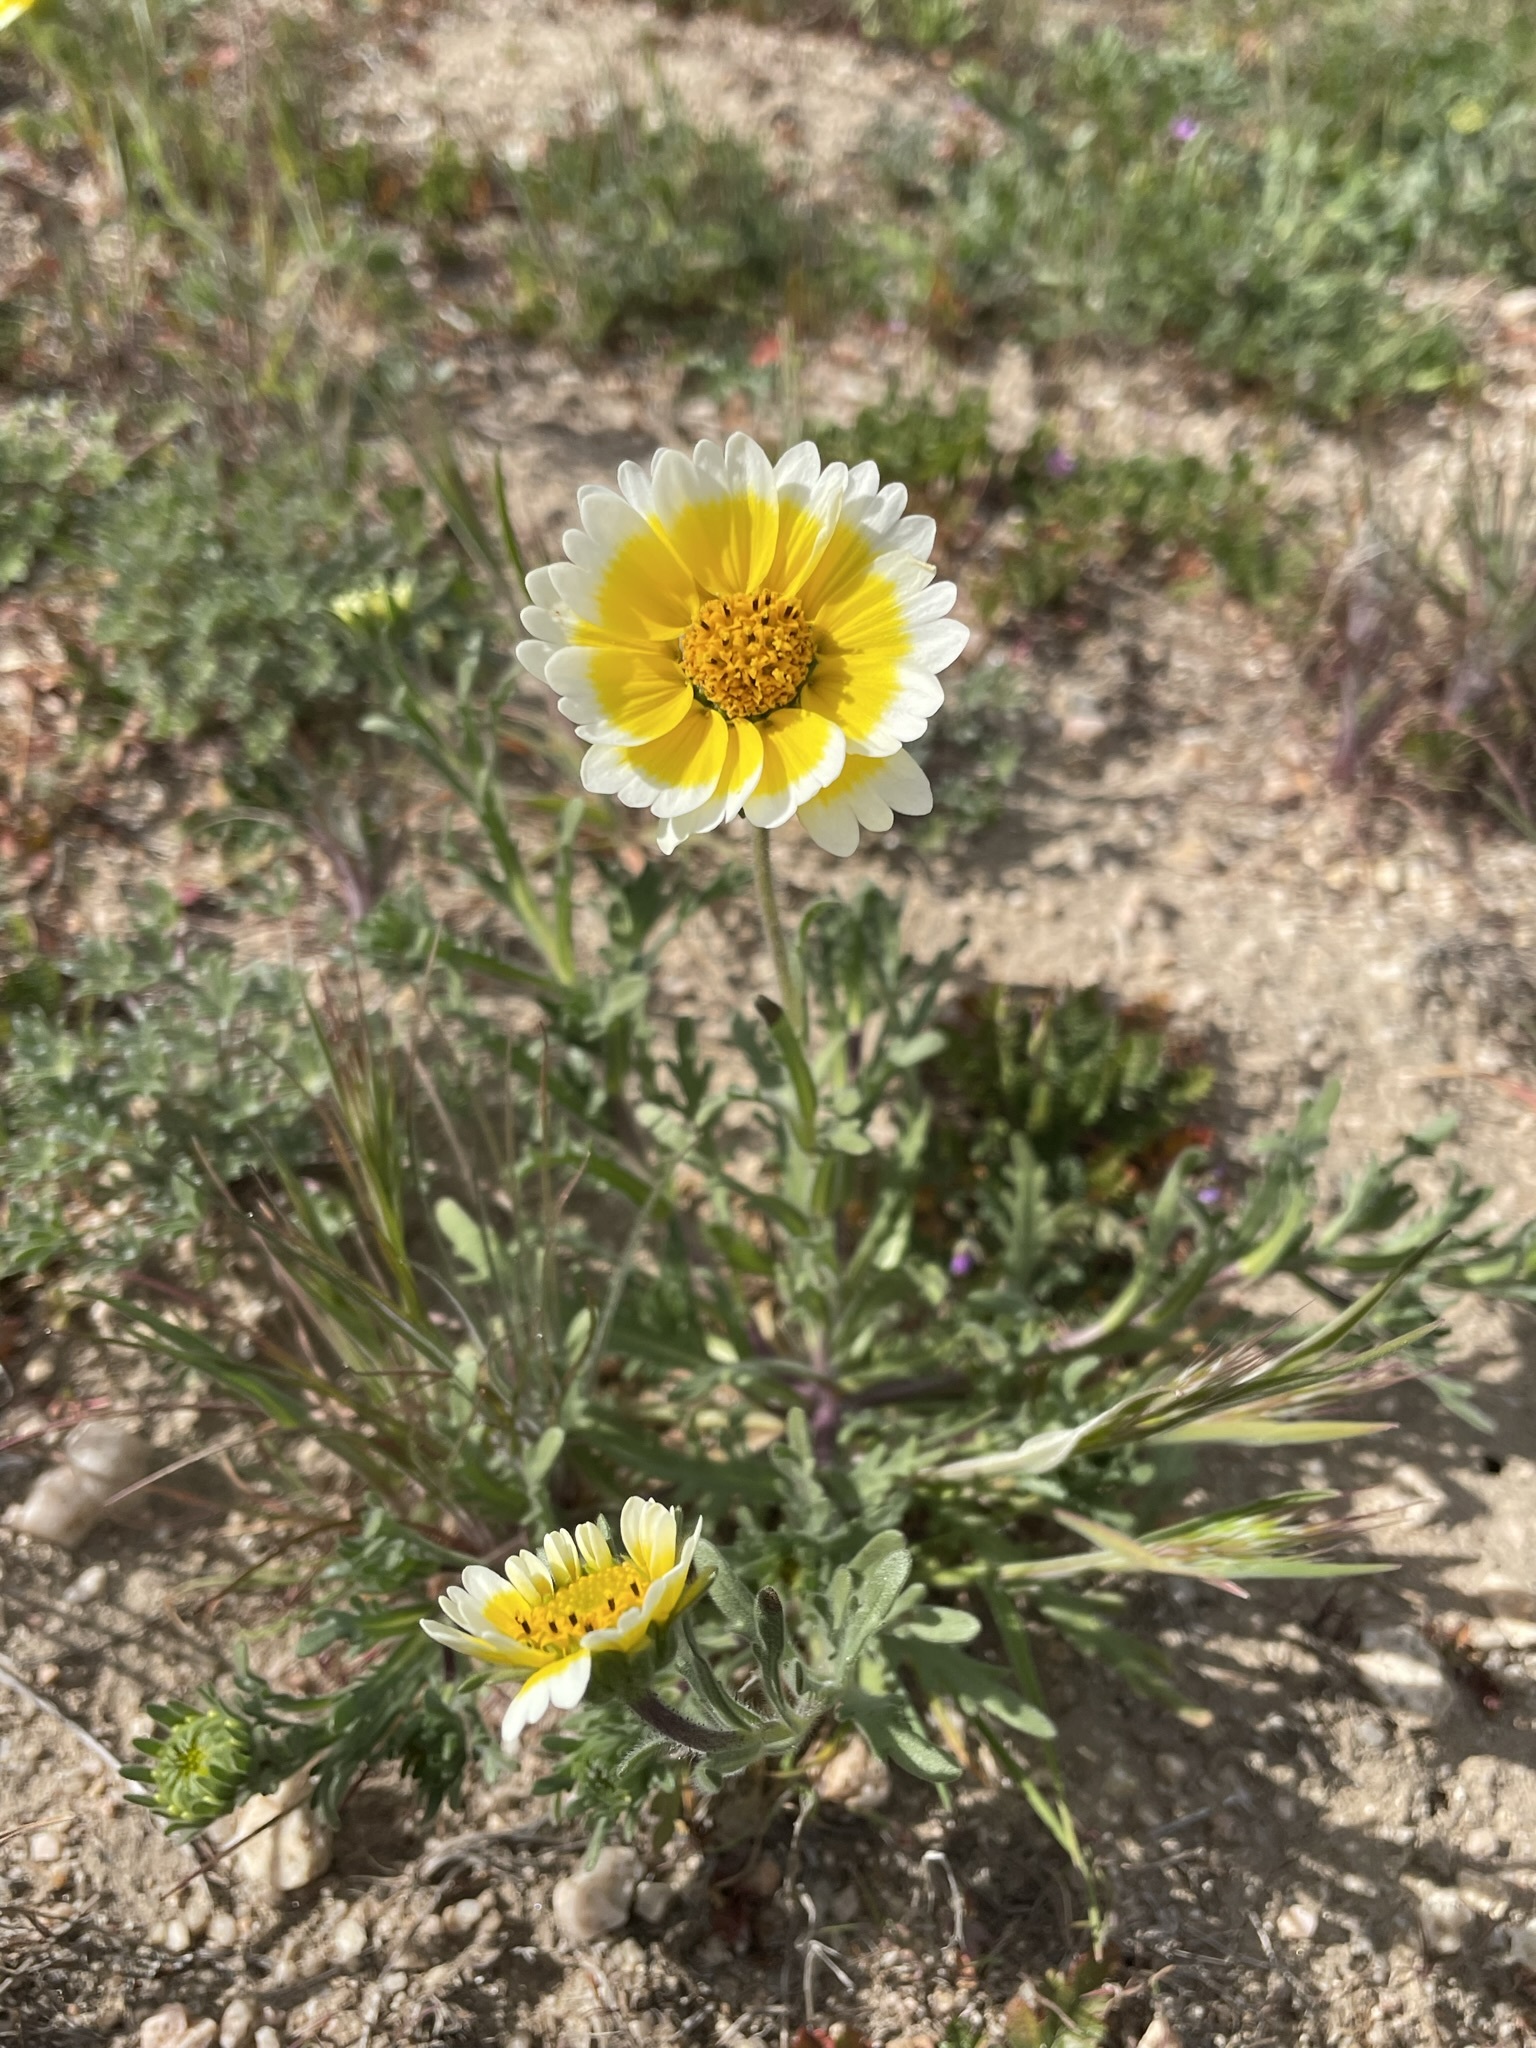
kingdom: Plantae
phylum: Tracheophyta
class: Magnoliopsida
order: Asterales
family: Asteraceae
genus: Layia
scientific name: Layia platyglossa
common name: Tidy-tips
